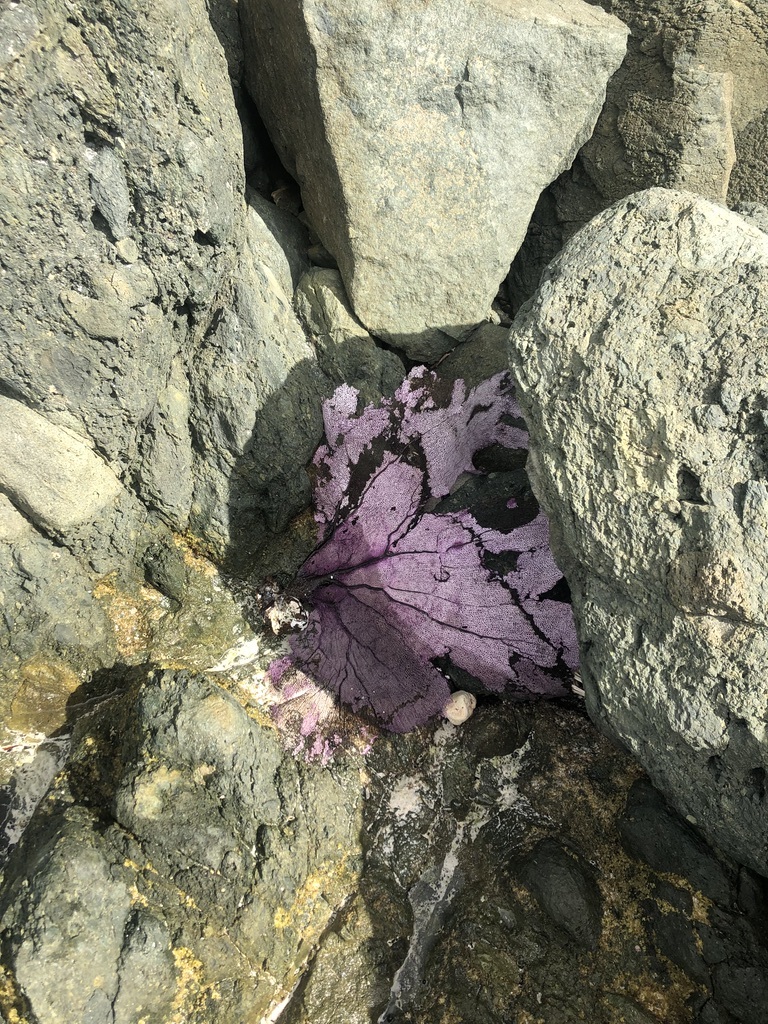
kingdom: Animalia
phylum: Cnidaria
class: Anthozoa
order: Malacalcyonacea
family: Gorgoniidae
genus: Gorgonia
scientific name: Gorgonia ventalina
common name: Common sea fan
